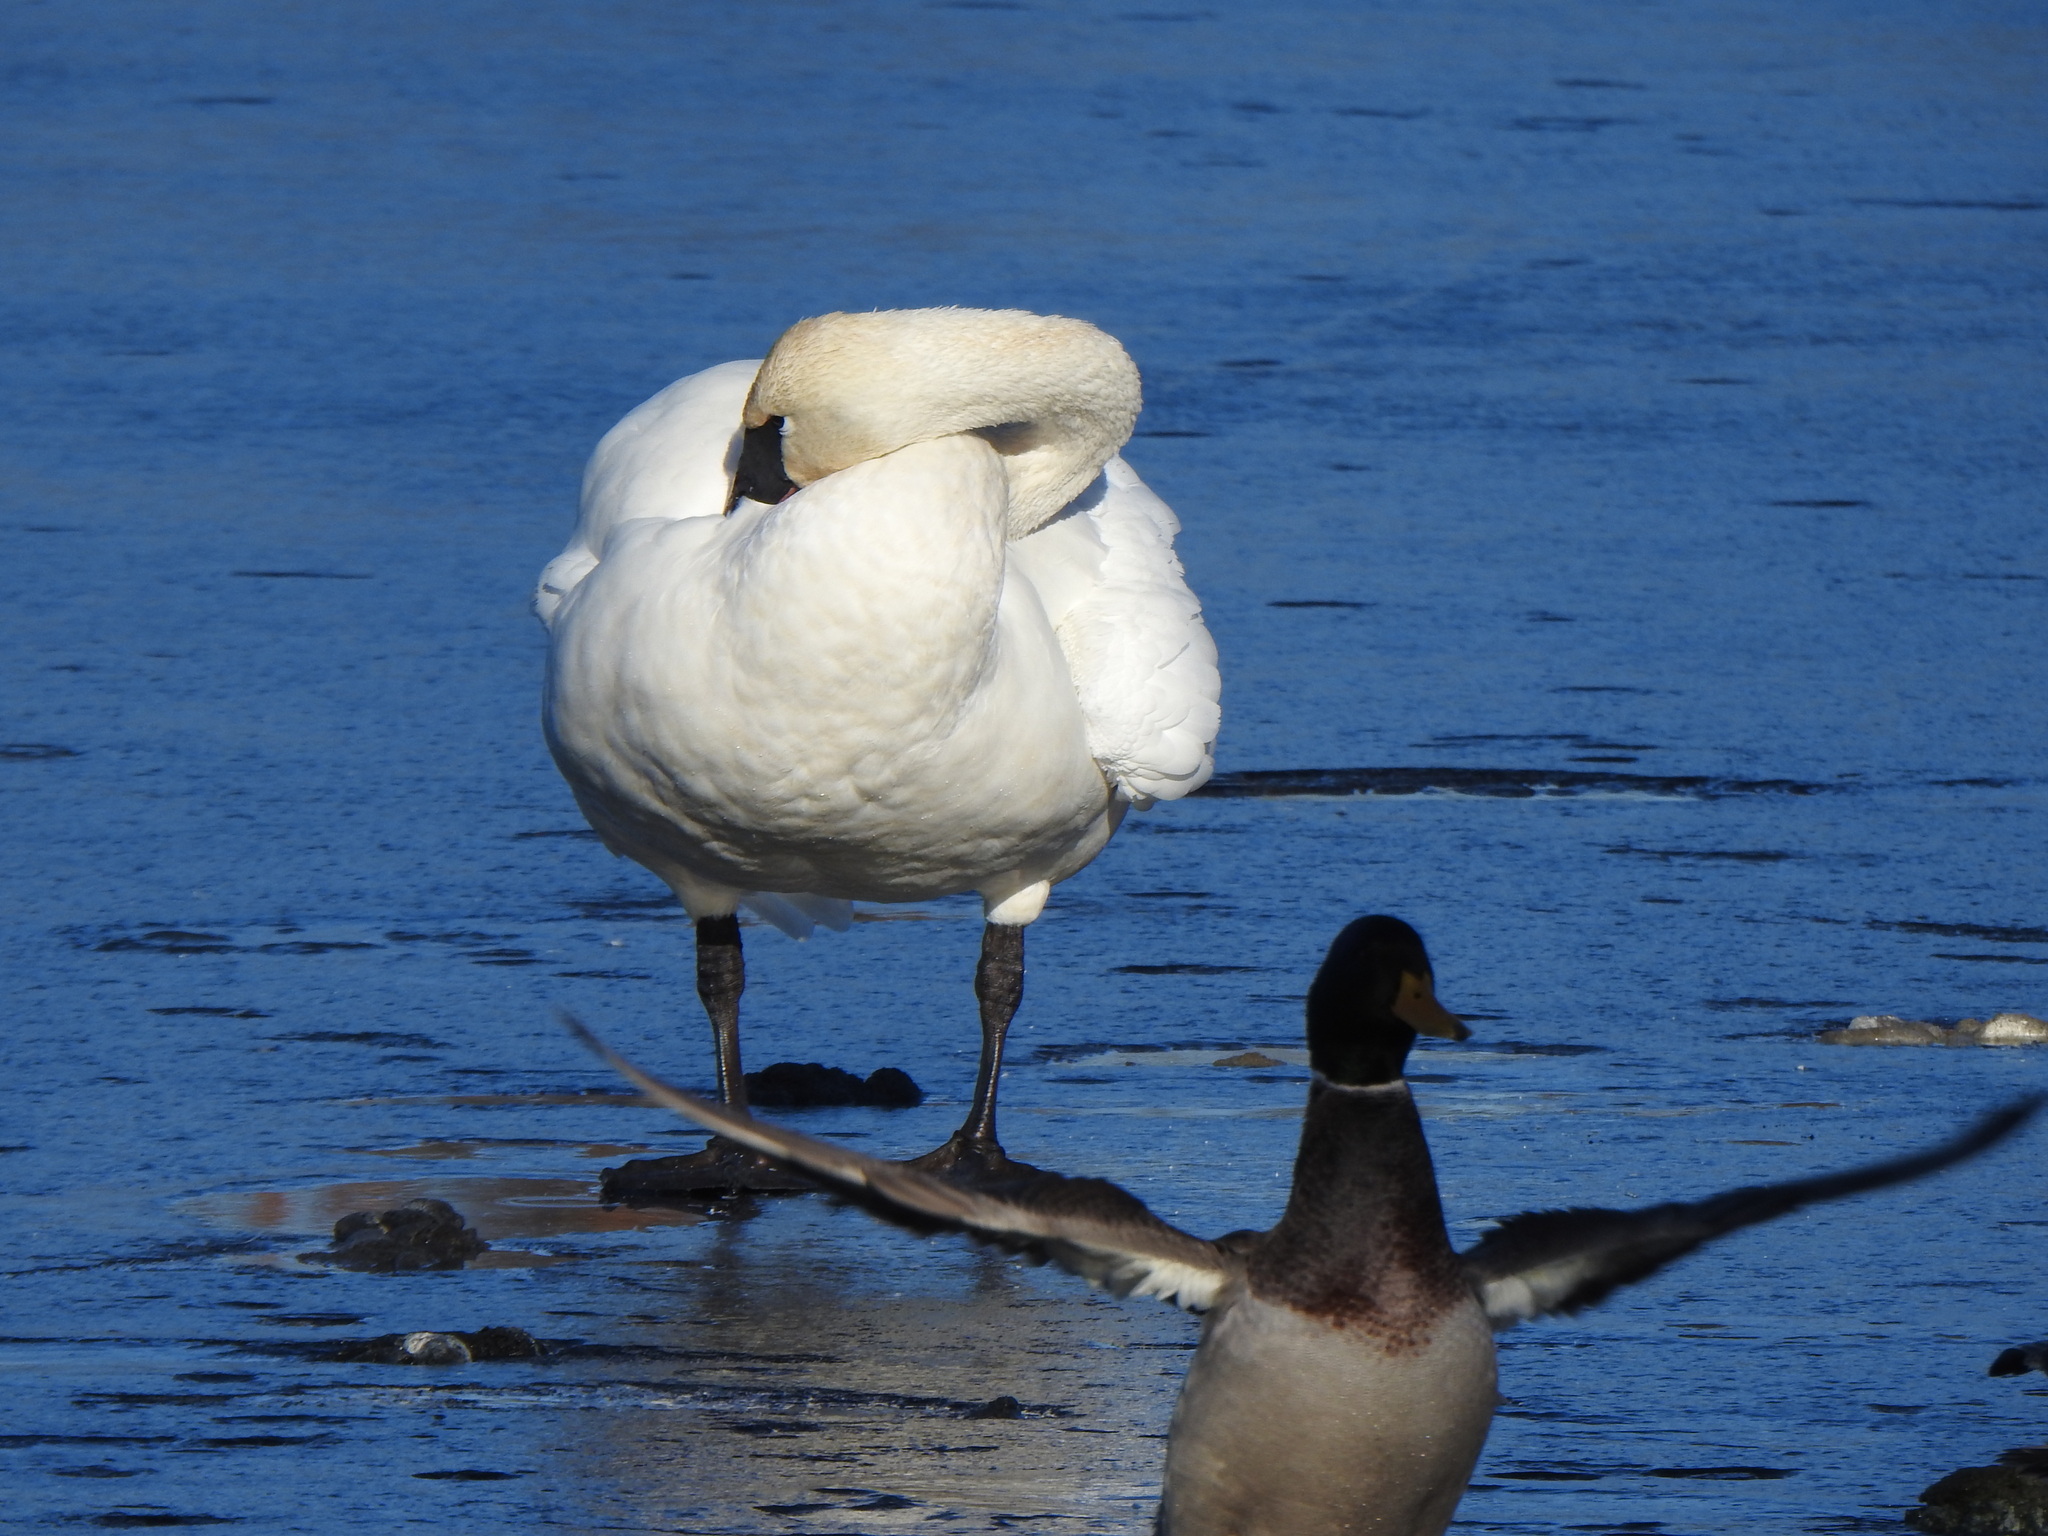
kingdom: Animalia
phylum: Chordata
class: Aves
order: Anseriformes
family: Anatidae
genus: Cygnus
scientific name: Cygnus buccinator
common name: Trumpeter swan
